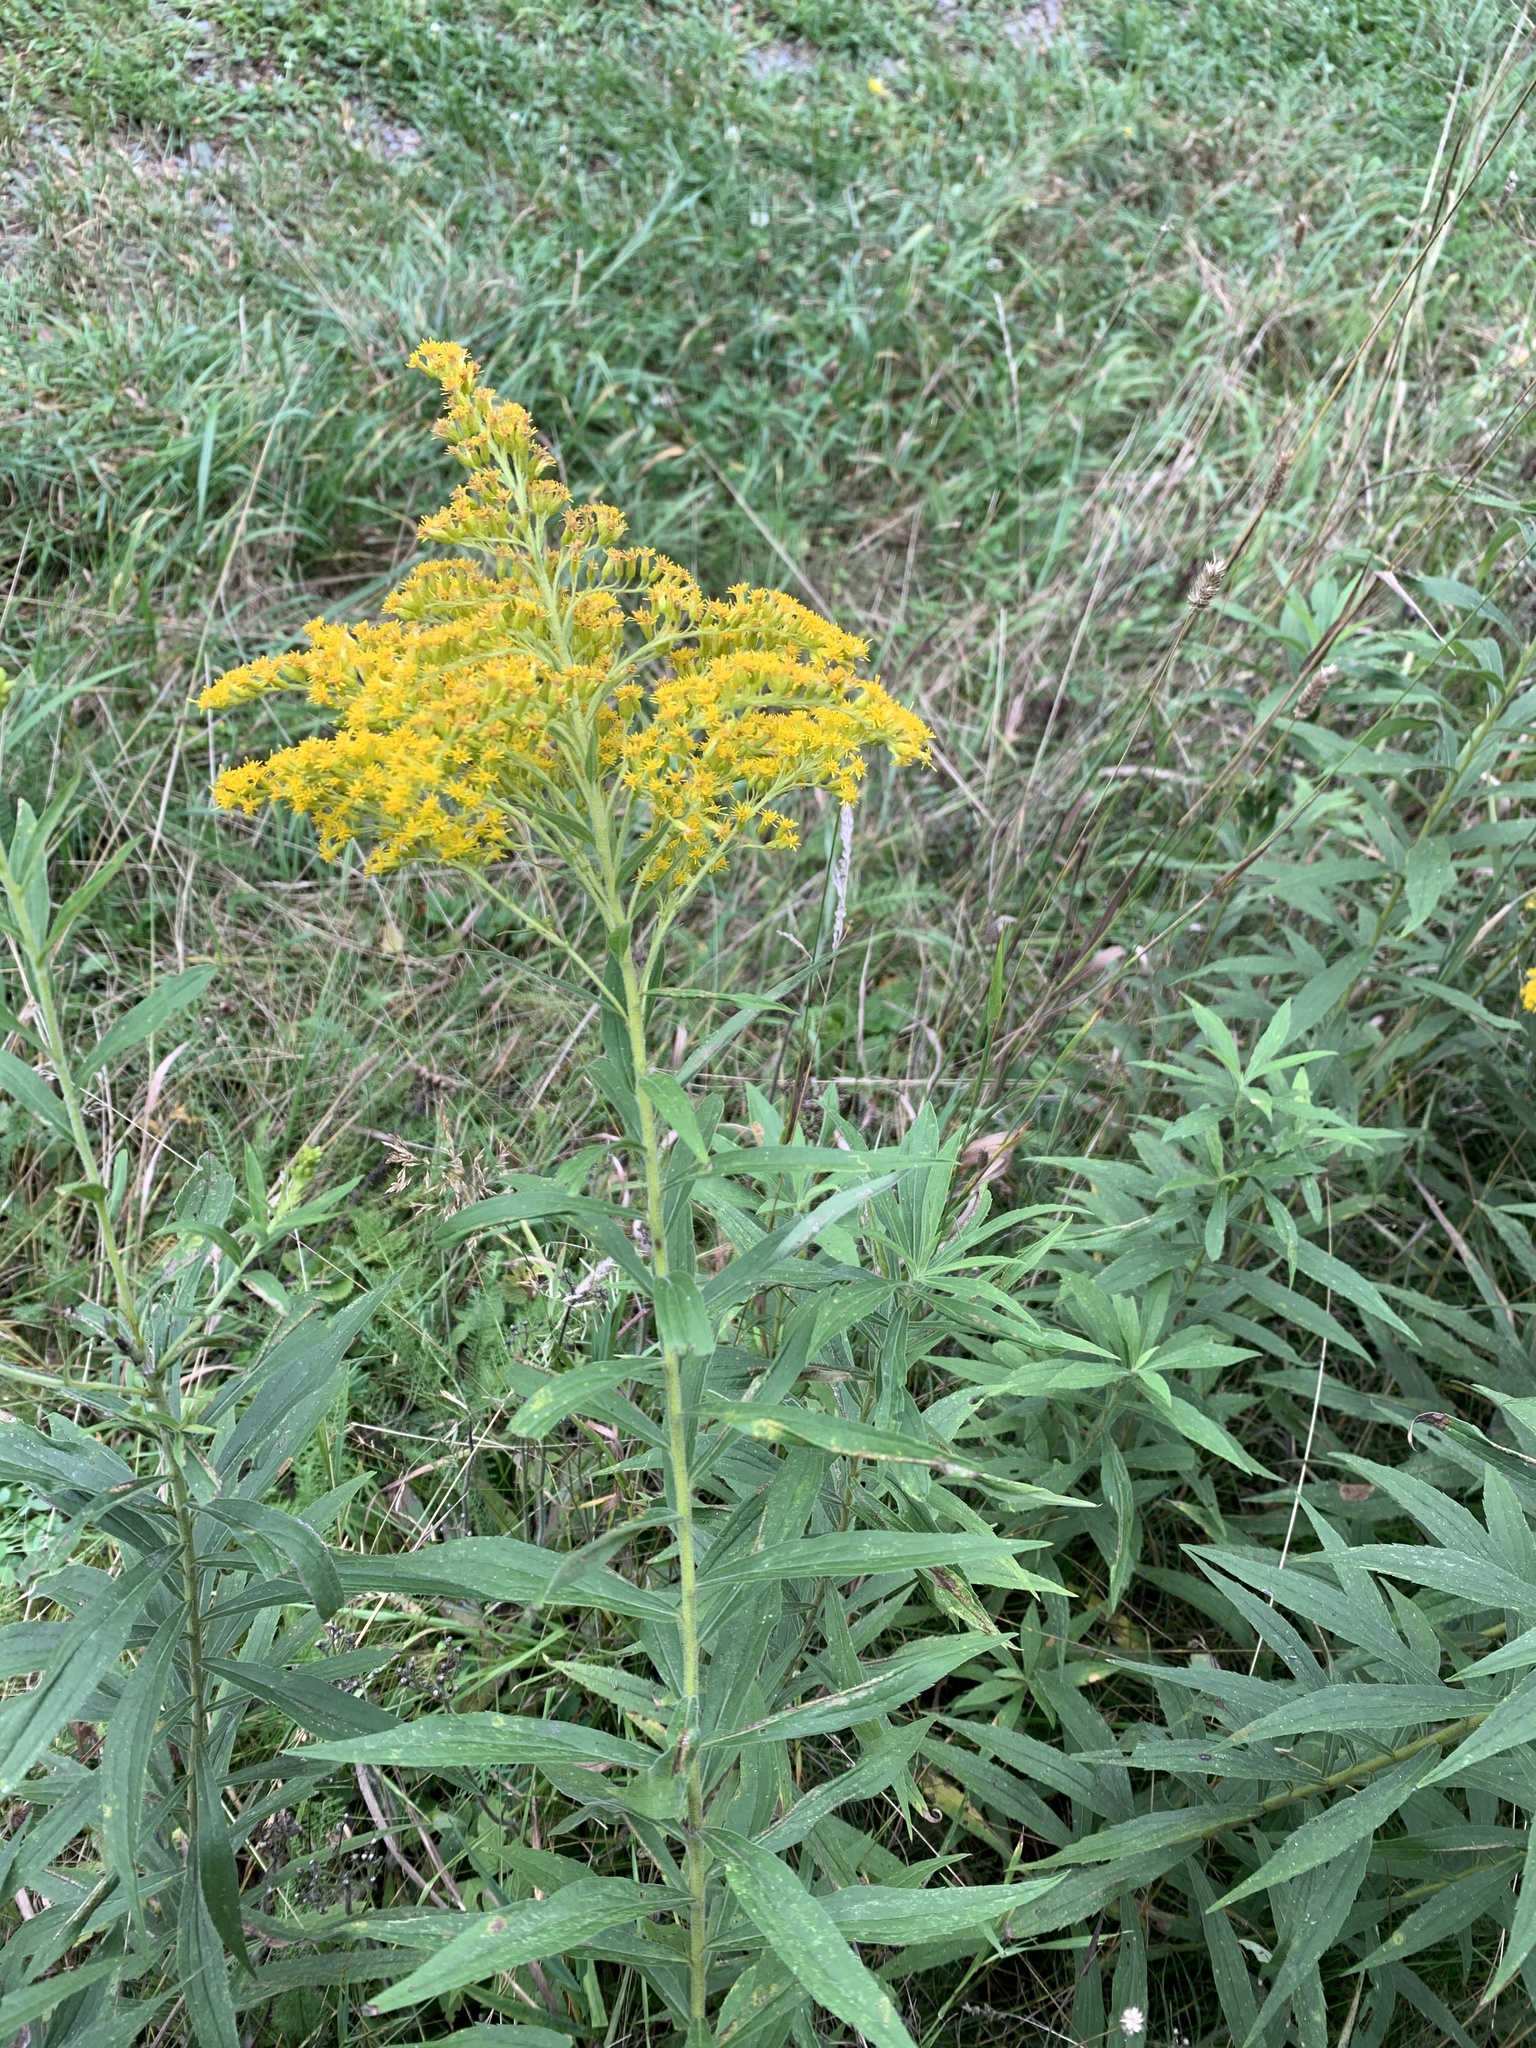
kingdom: Plantae
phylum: Tracheophyta
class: Magnoliopsida
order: Asterales
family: Asteraceae
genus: Solidago
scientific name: Solidago altissima
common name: Late goldenrod
